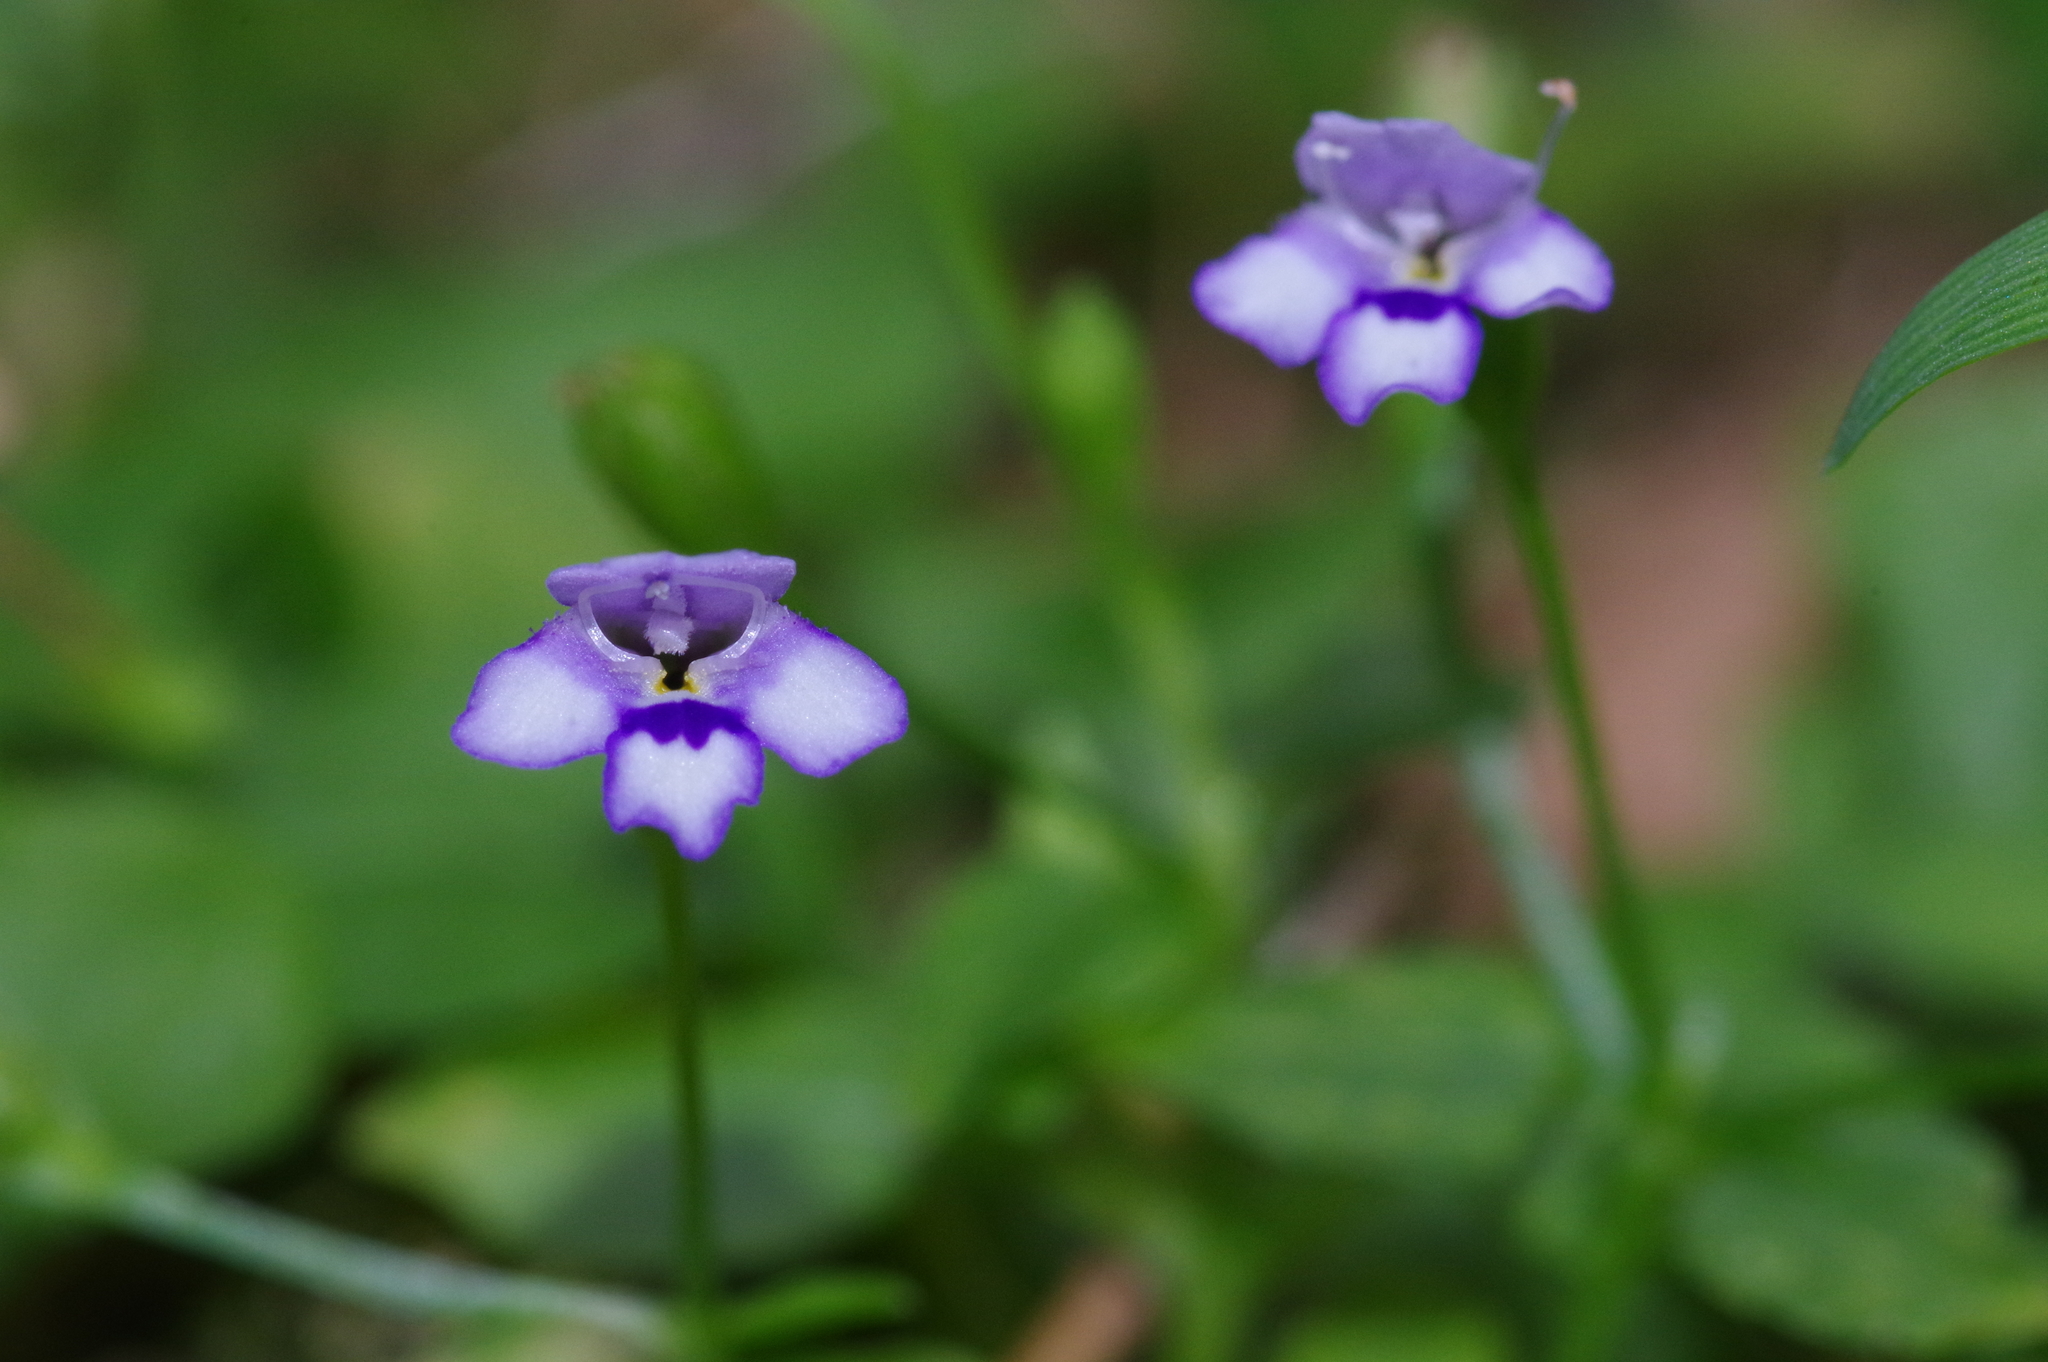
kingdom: Plantae
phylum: Tracheophyta
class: Magnoliopsida
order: Lamiales
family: Linderniaceae
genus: Torenia
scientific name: Torenia crustacea
